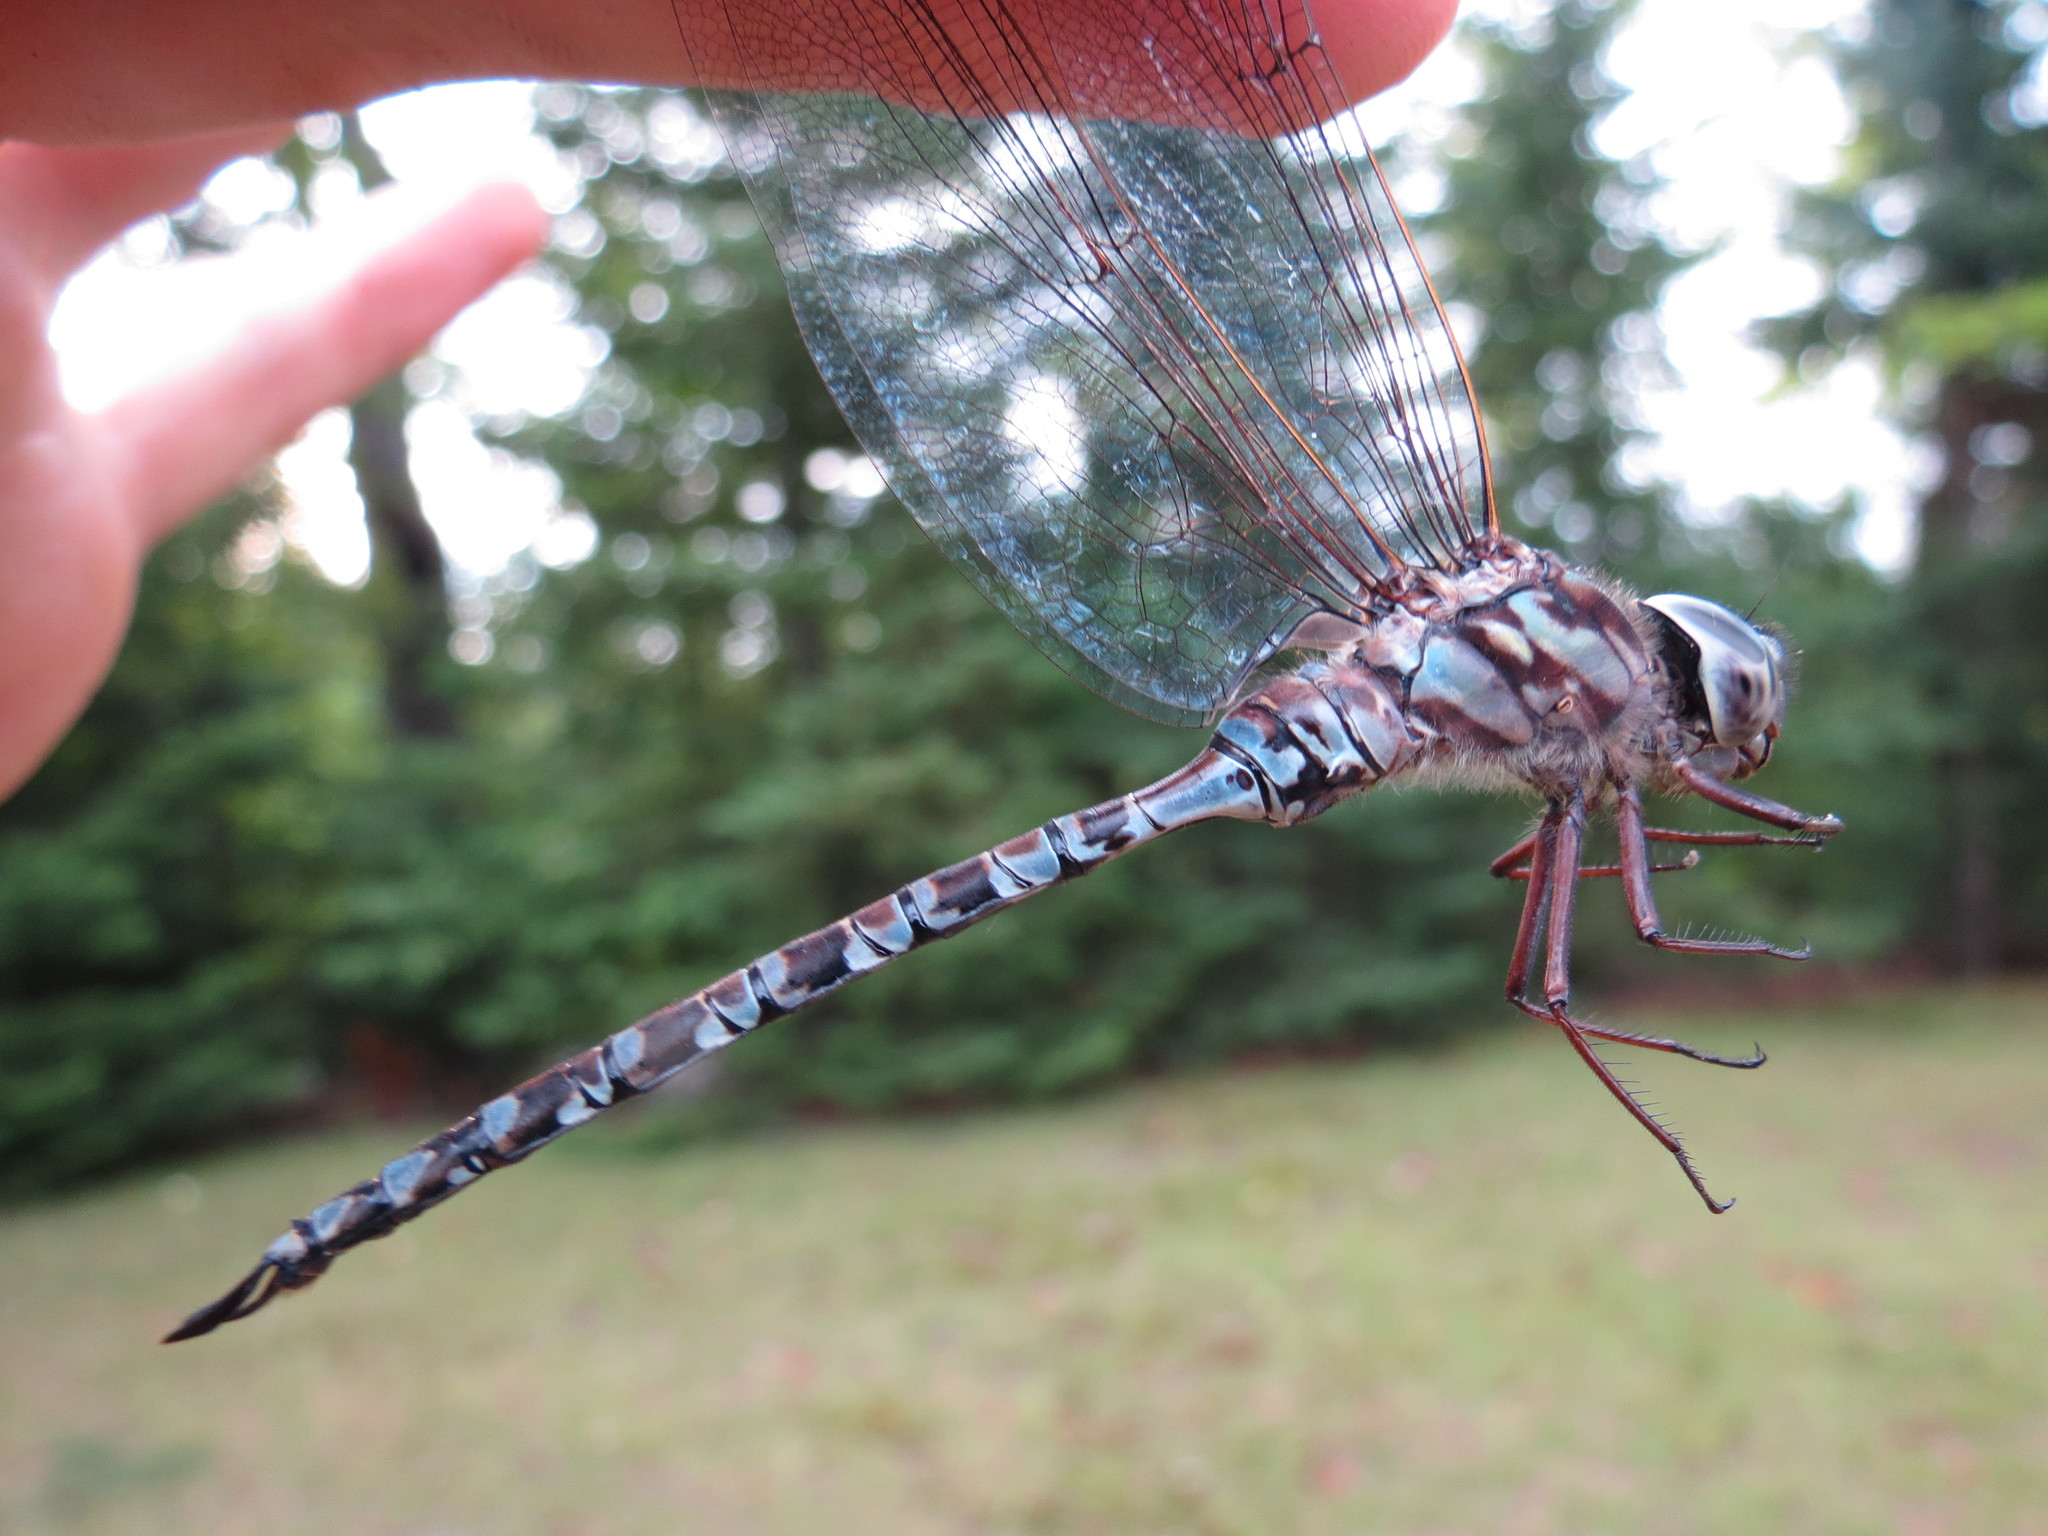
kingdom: Animalia
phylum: Arthropoda
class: Insecta
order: Odonata
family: Aeshnidae
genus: Aeshna
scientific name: Aeshna clepsydra
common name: Mottled darner
